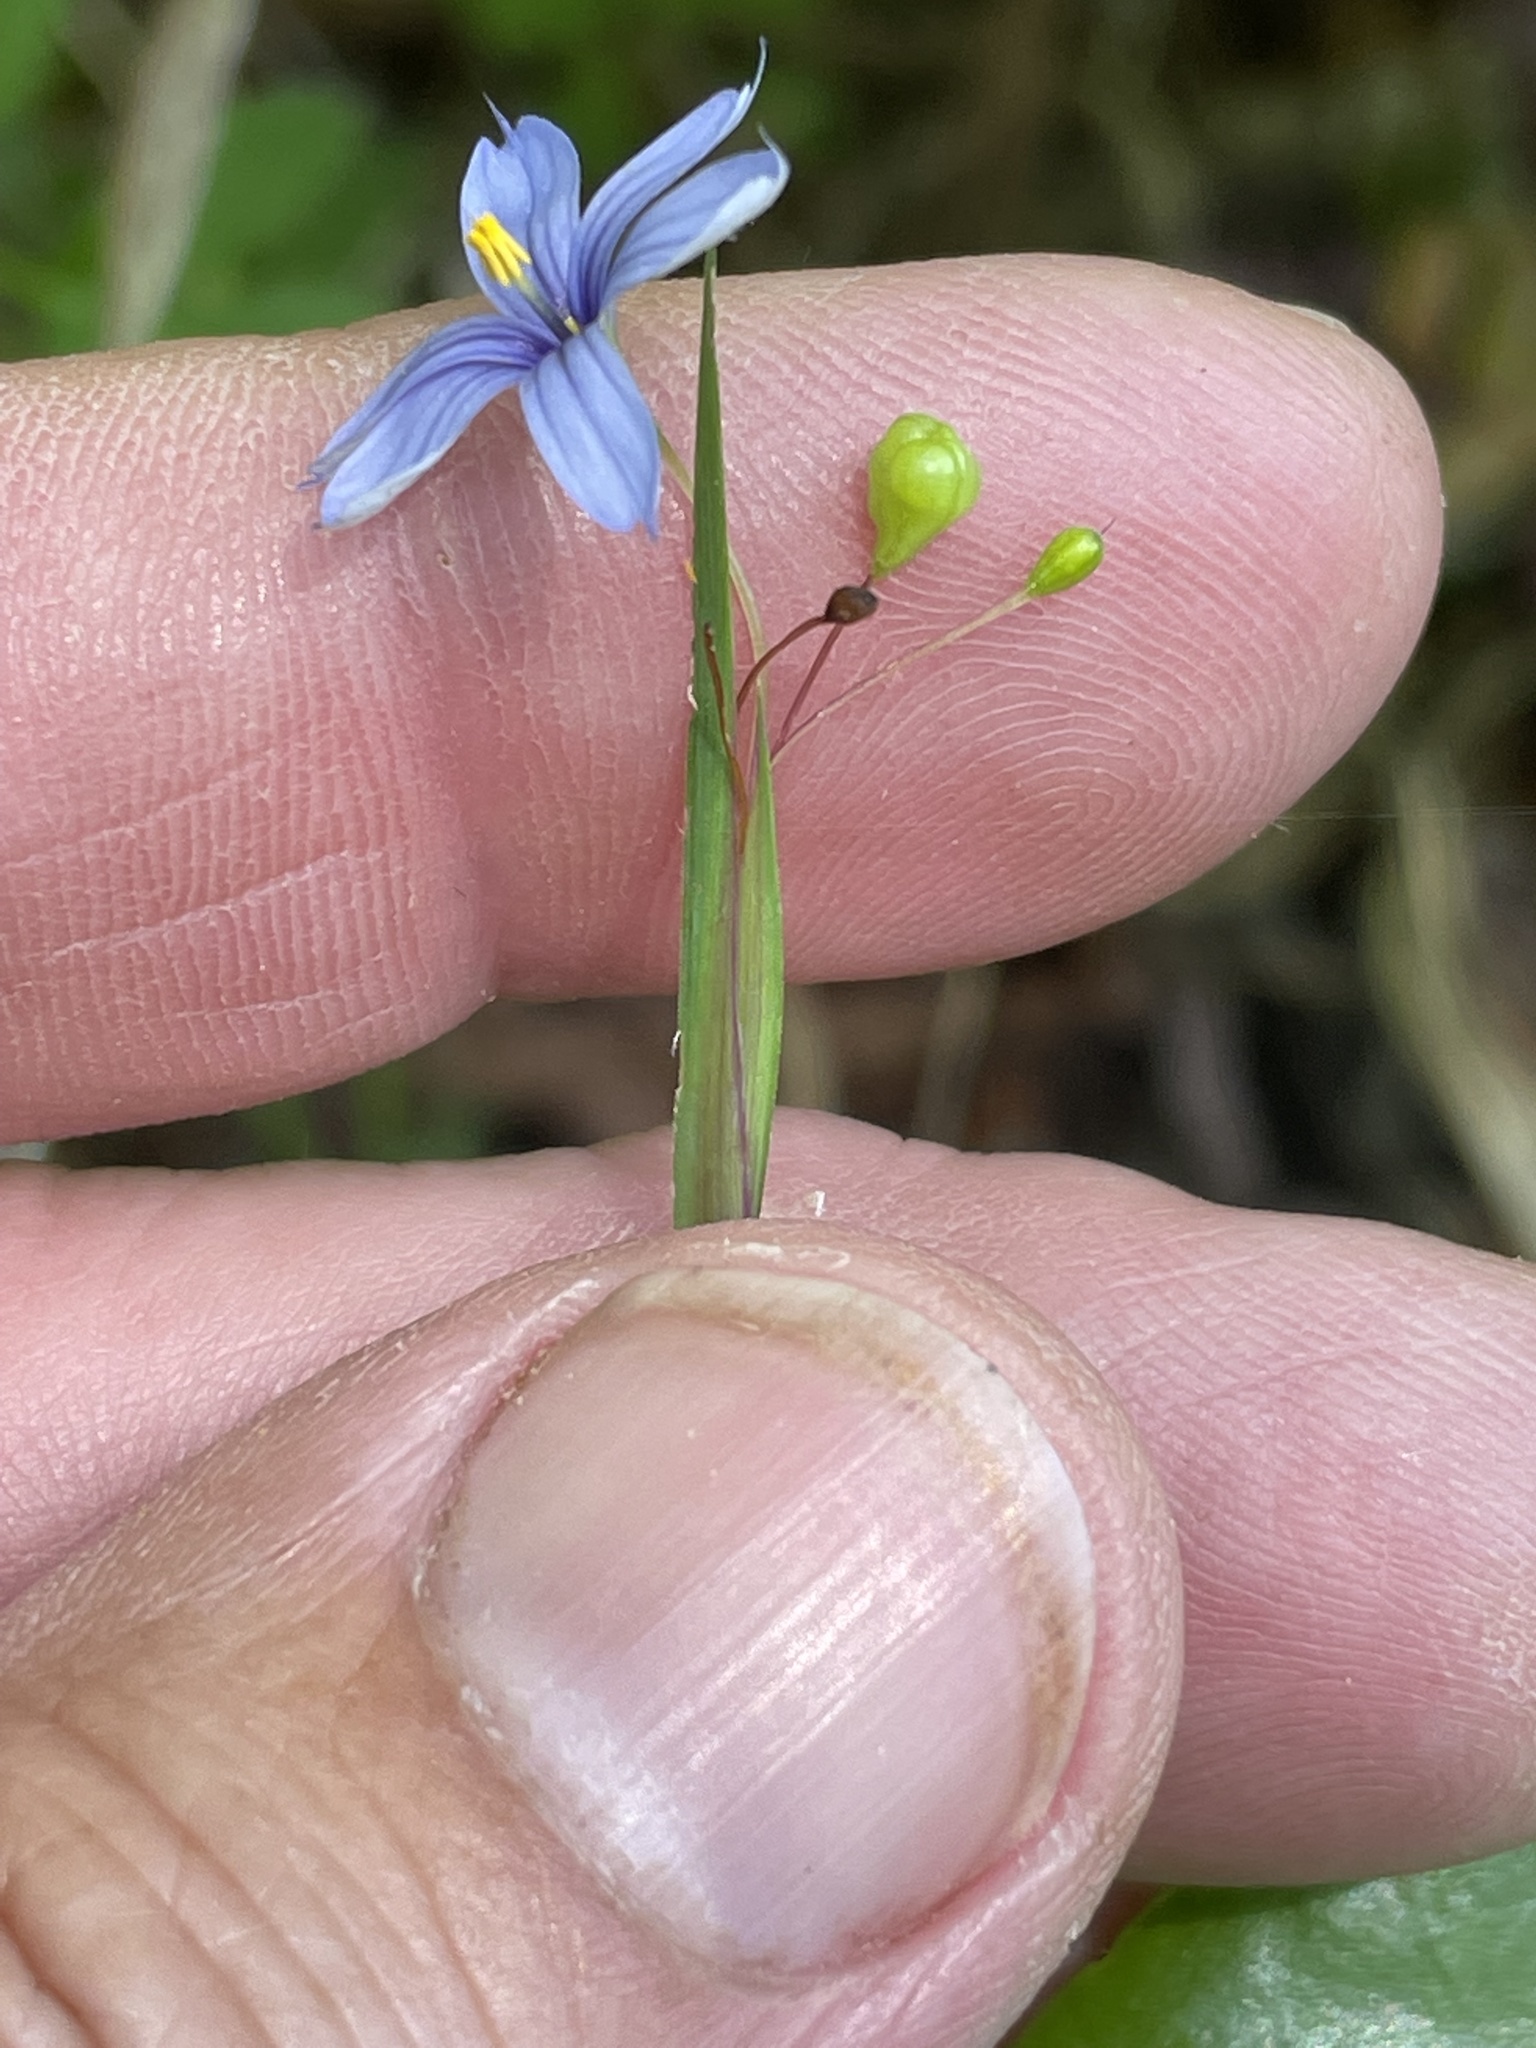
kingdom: Plantae
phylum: Tracheophyta
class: Liliopsida
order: Asparagales
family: Iridaceae
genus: Sisyrinchium
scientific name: Sisyrinchium mucronatum
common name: Eastern blue-eyed-grass
